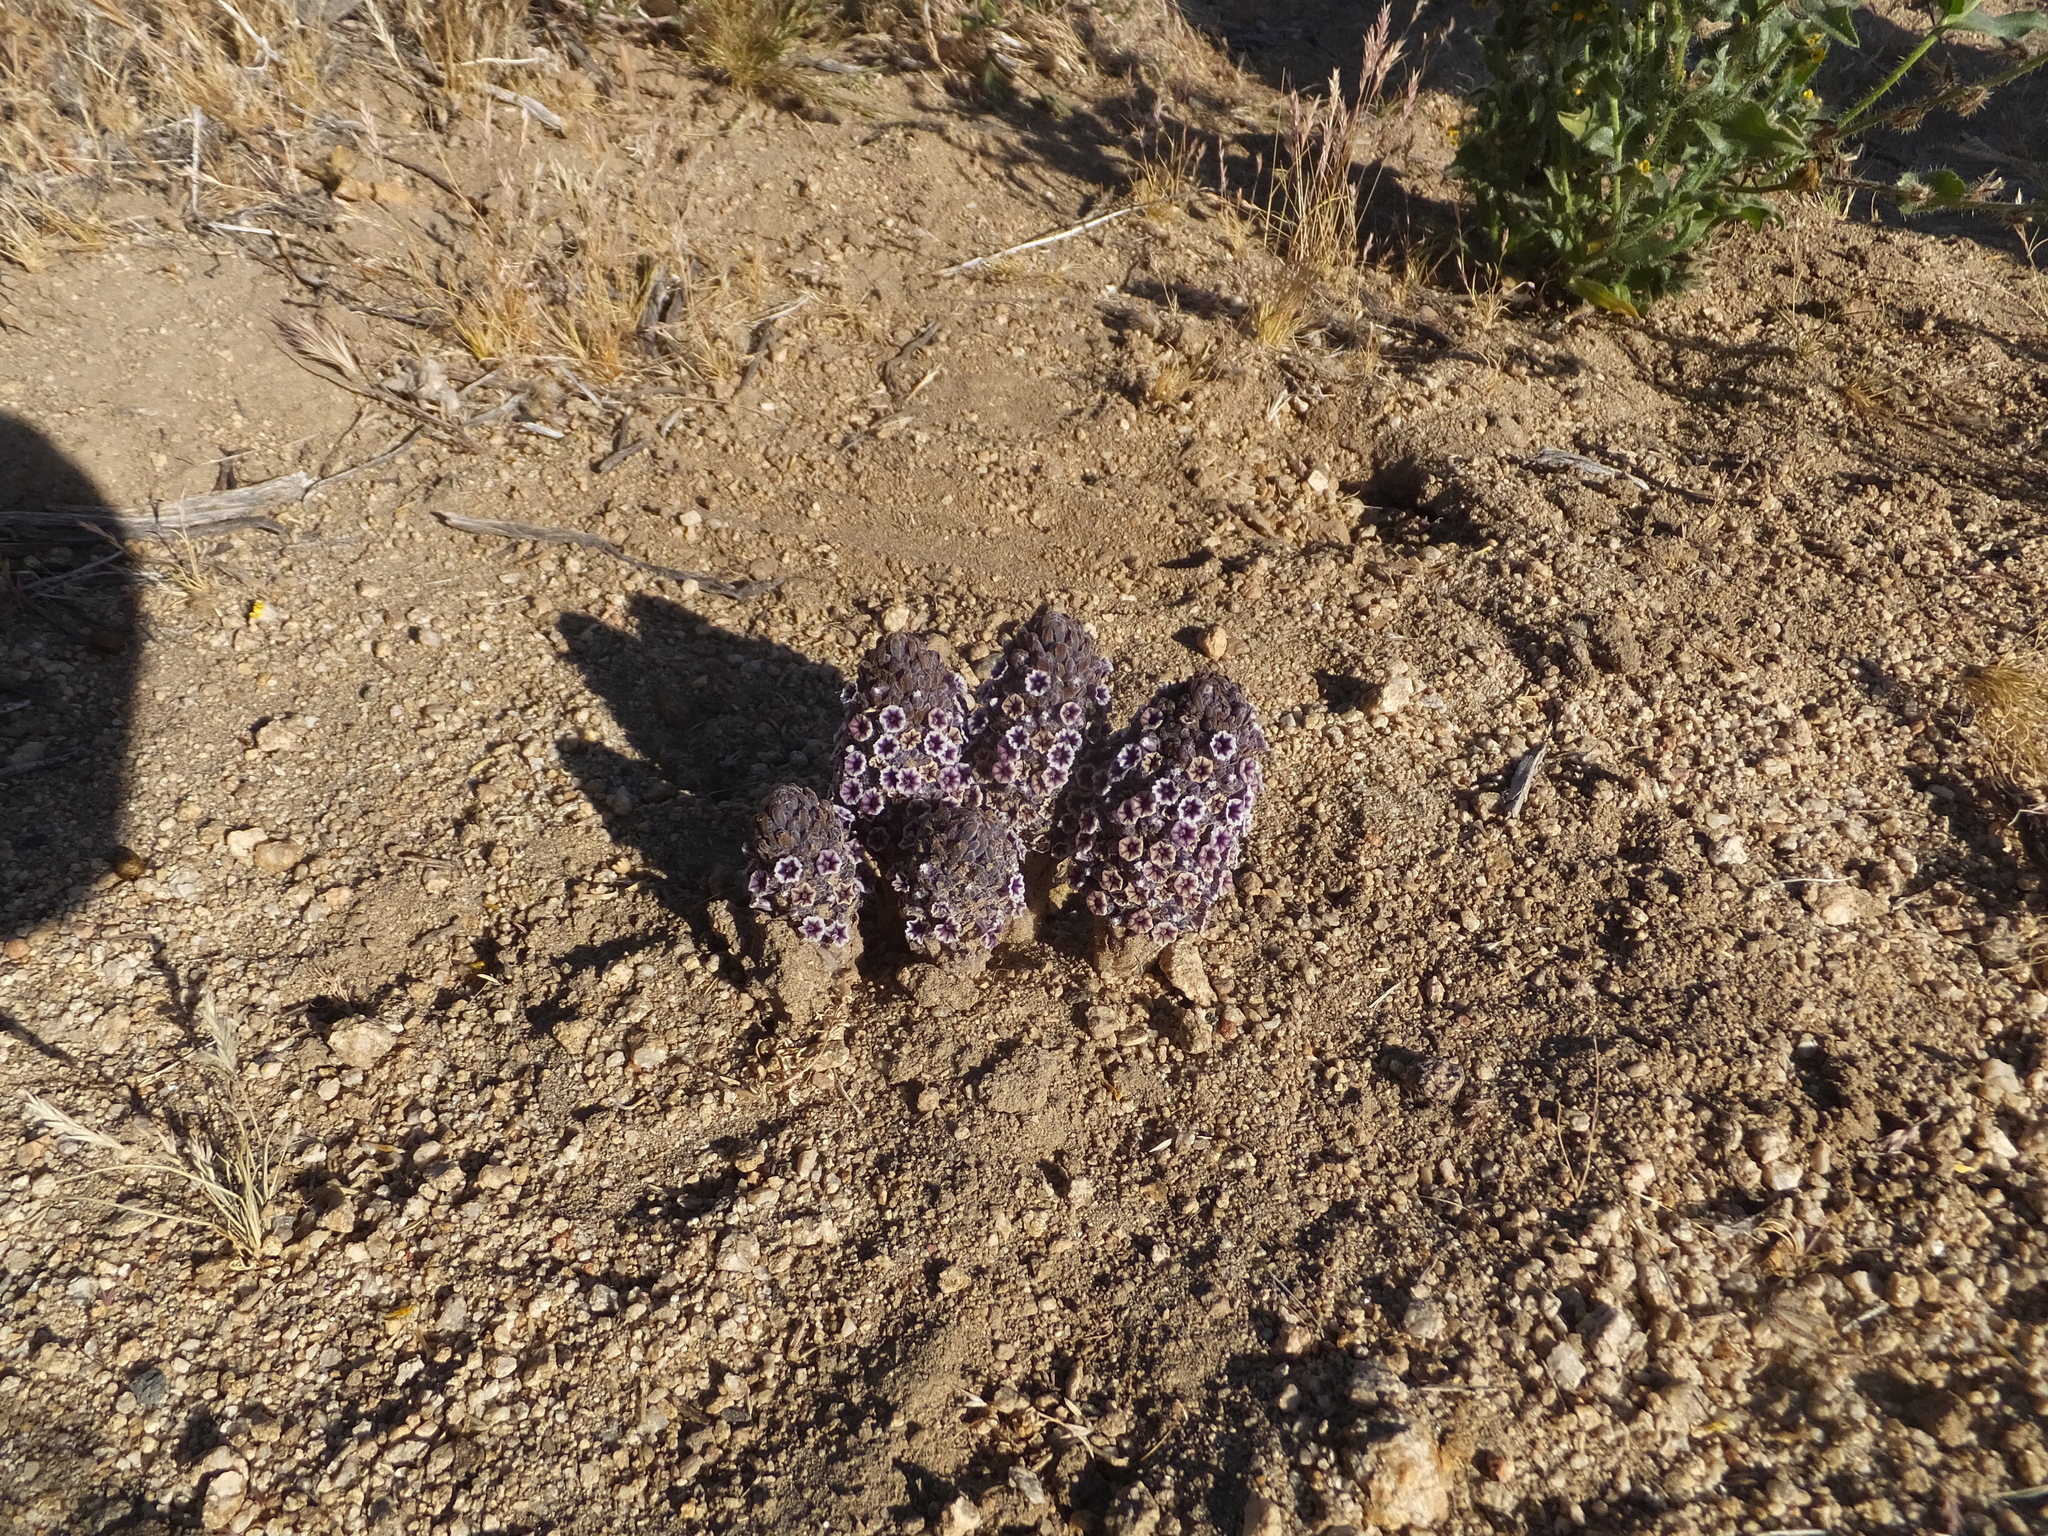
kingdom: Plantae
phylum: Tracheophyta
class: Magnoliopsida
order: Boraginales
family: Lennoaceae
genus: Pholisma
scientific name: Pholisma arenarium
